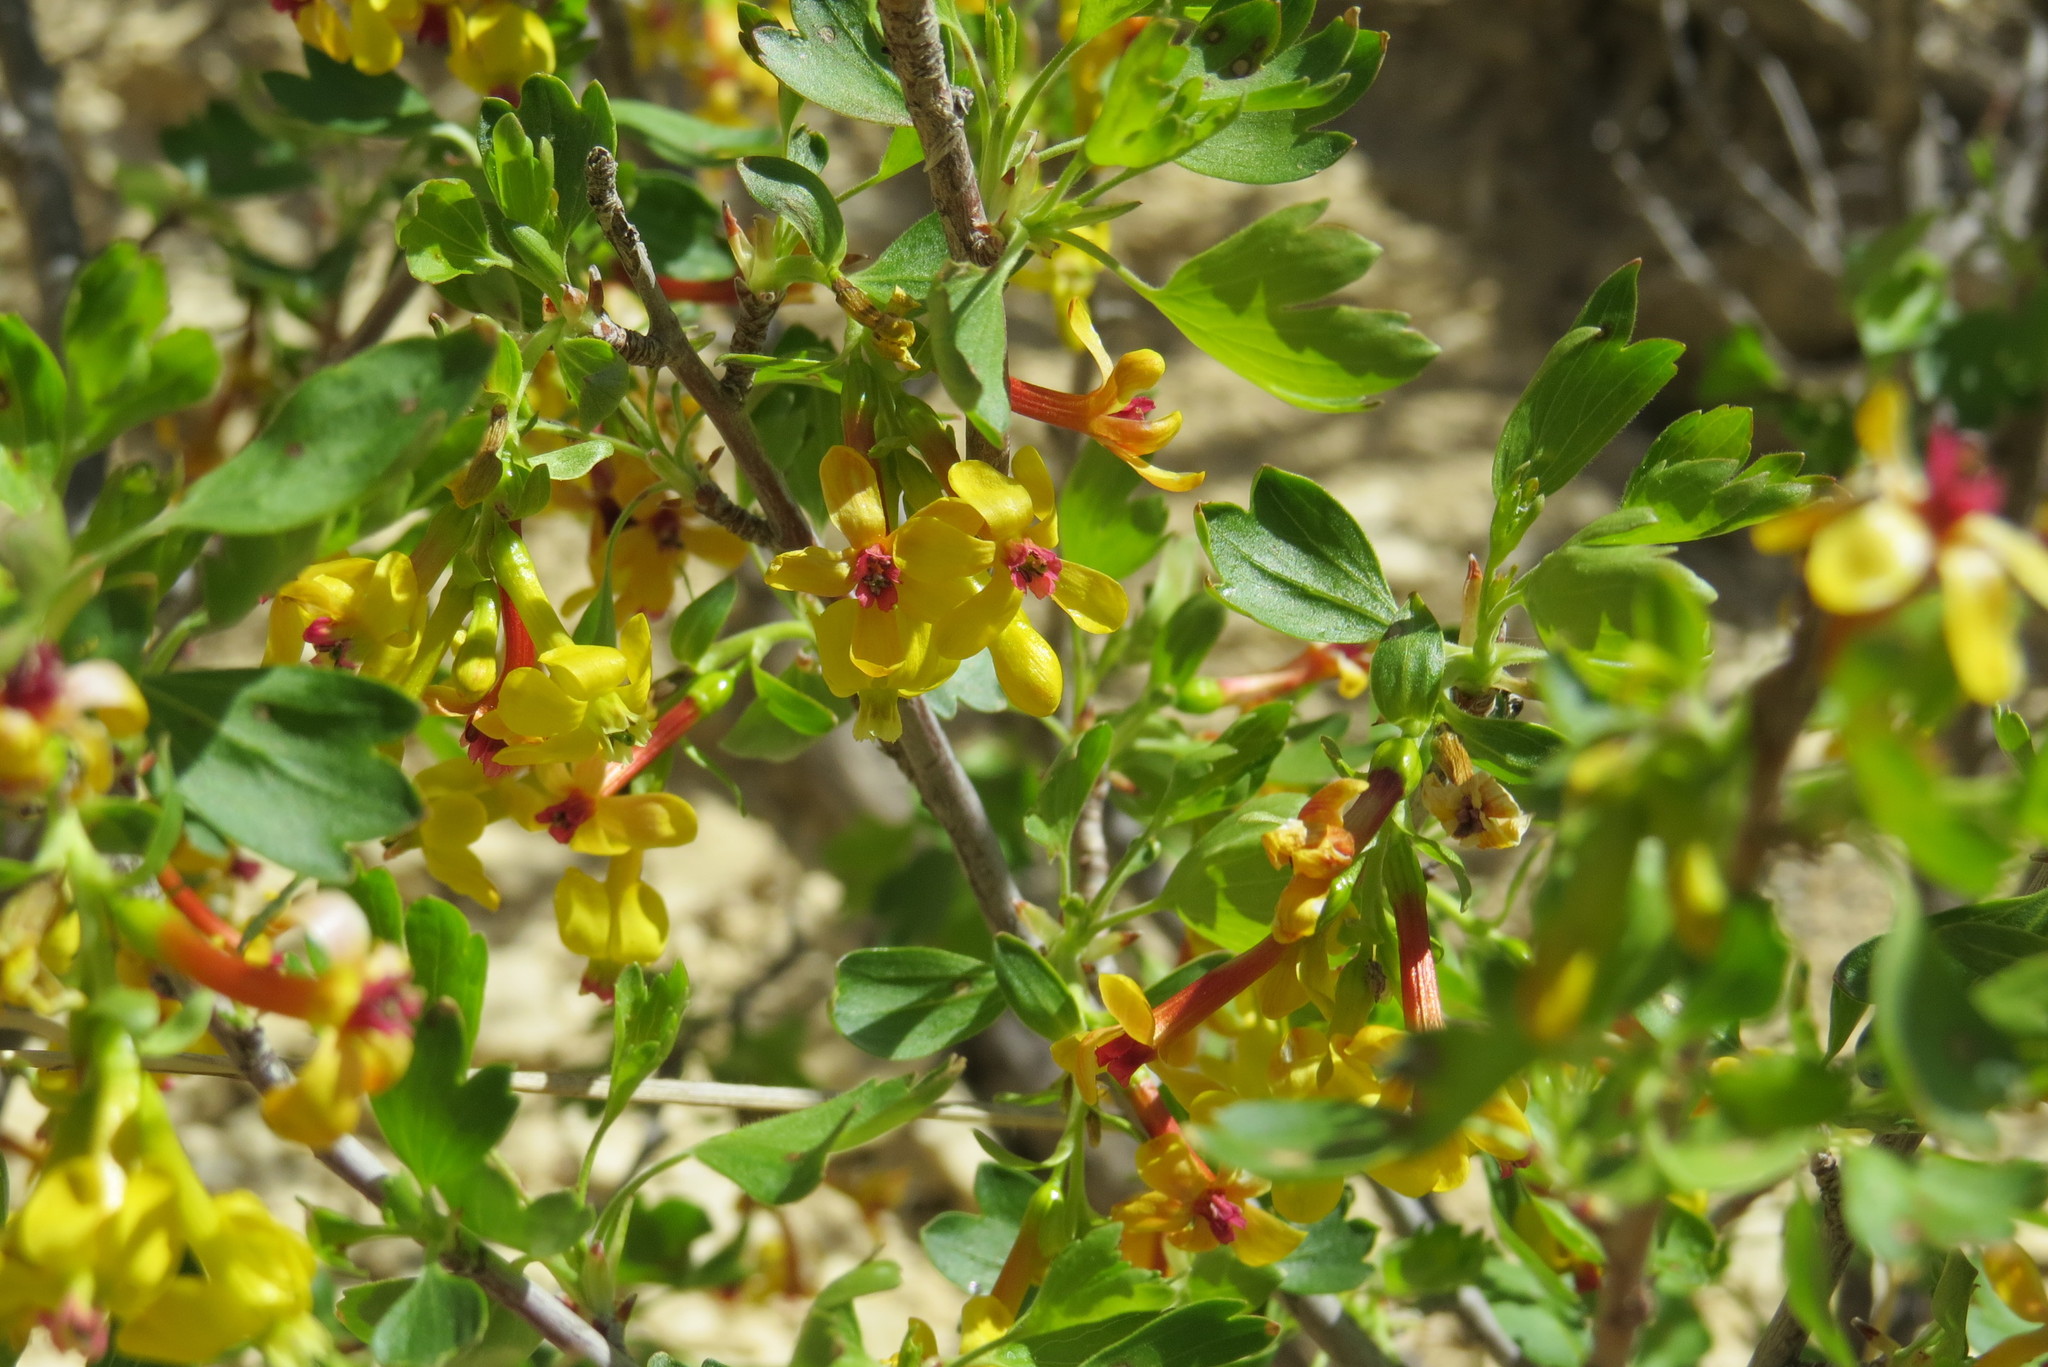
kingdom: Plantae
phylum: Tracheophyta
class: Magnoliopsida
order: Saxifragales
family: Grossulariaceae
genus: Ribes
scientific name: Ribes aureum
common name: Golden currant
